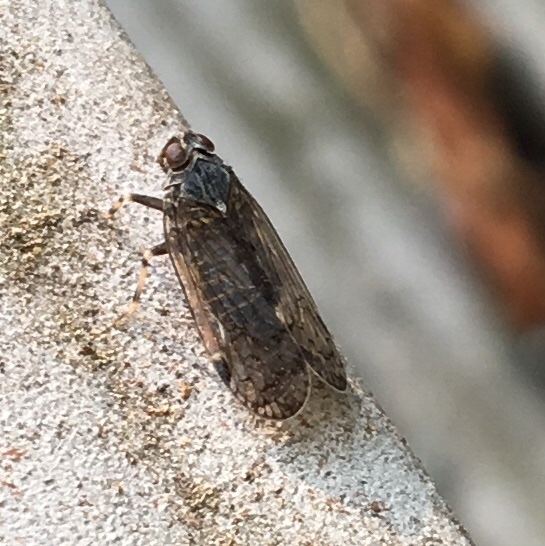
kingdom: Animalia
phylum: Arthropoda
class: Insecta
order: Hemiptera
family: Cixiidae
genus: Melanoliarus
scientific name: Melanoliarus montanus
